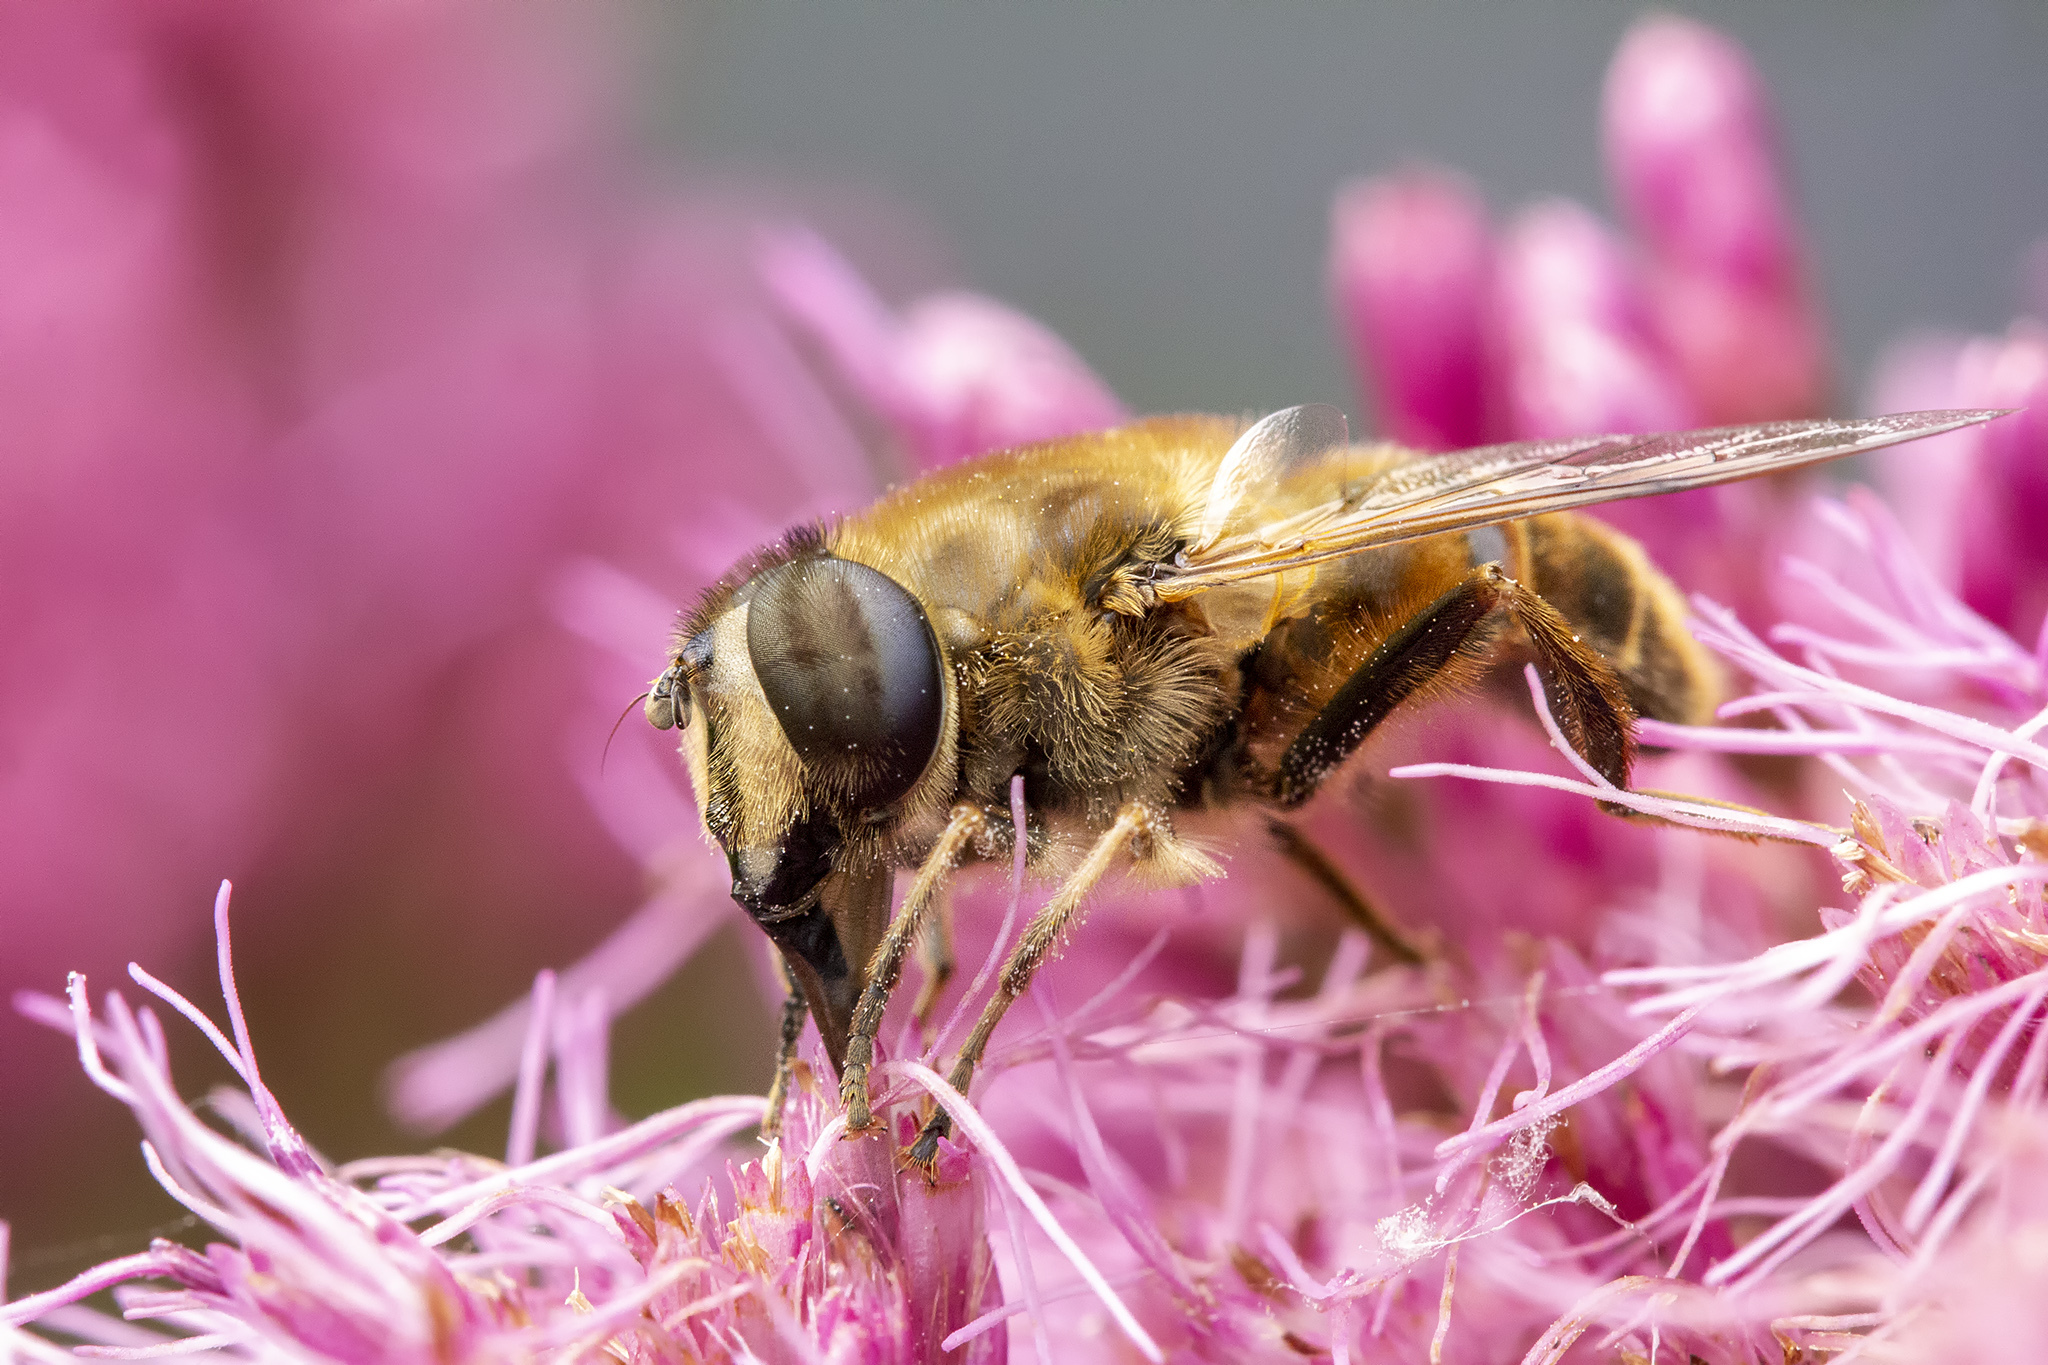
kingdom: Animalia
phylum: Arthropoda
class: Insecta
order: Diptera
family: Syrphidae
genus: Eristalis
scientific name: Eristalis tenax
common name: Drone fly
